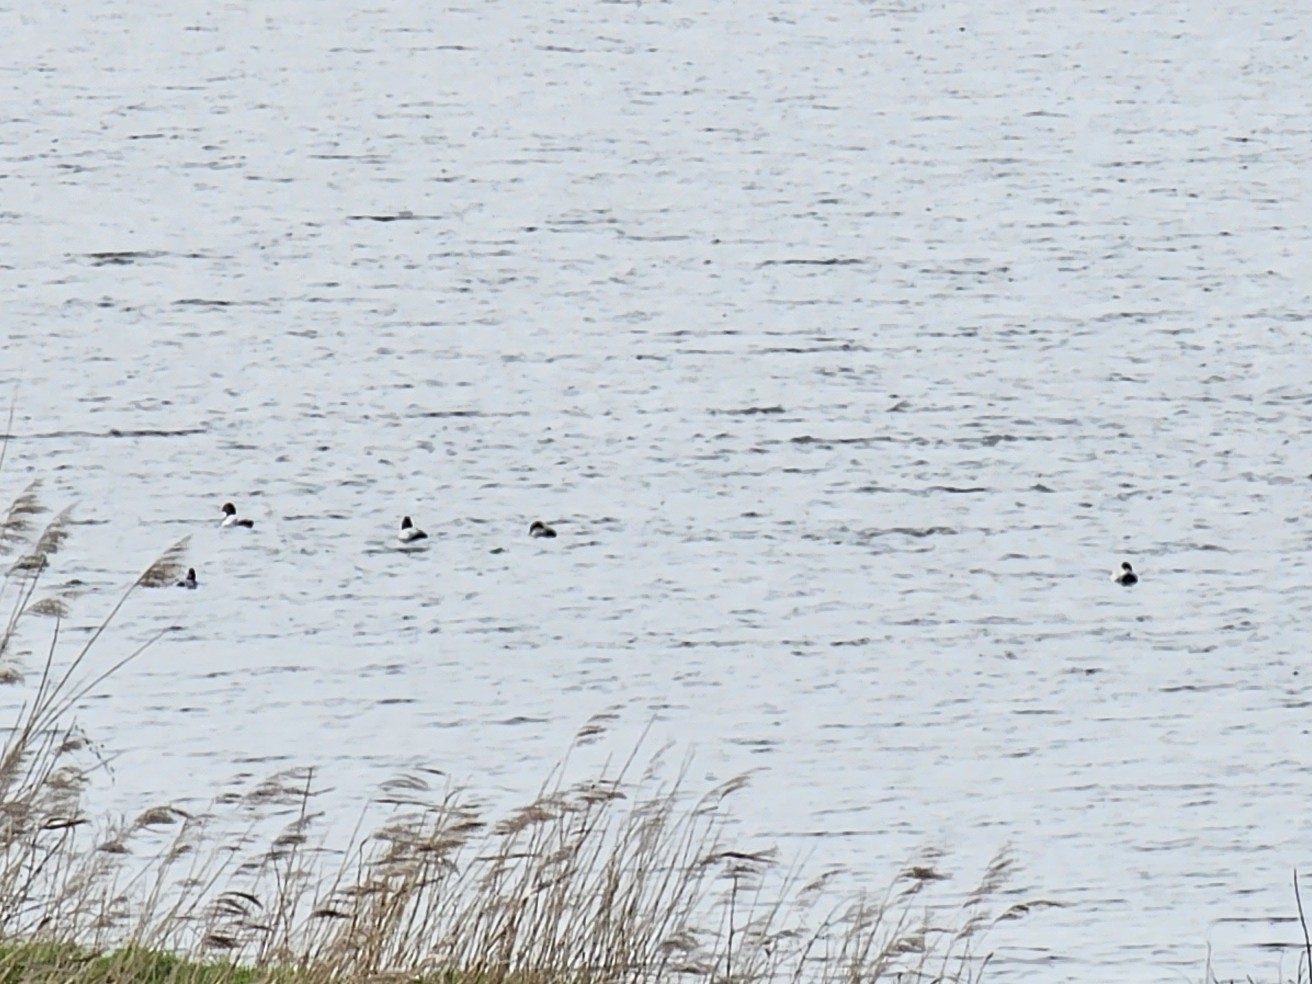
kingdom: Animalia
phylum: Chordata
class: Aves
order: Anseriformes
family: Anatidae
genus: Aythya
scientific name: Aythya ferina
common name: Common pochard
